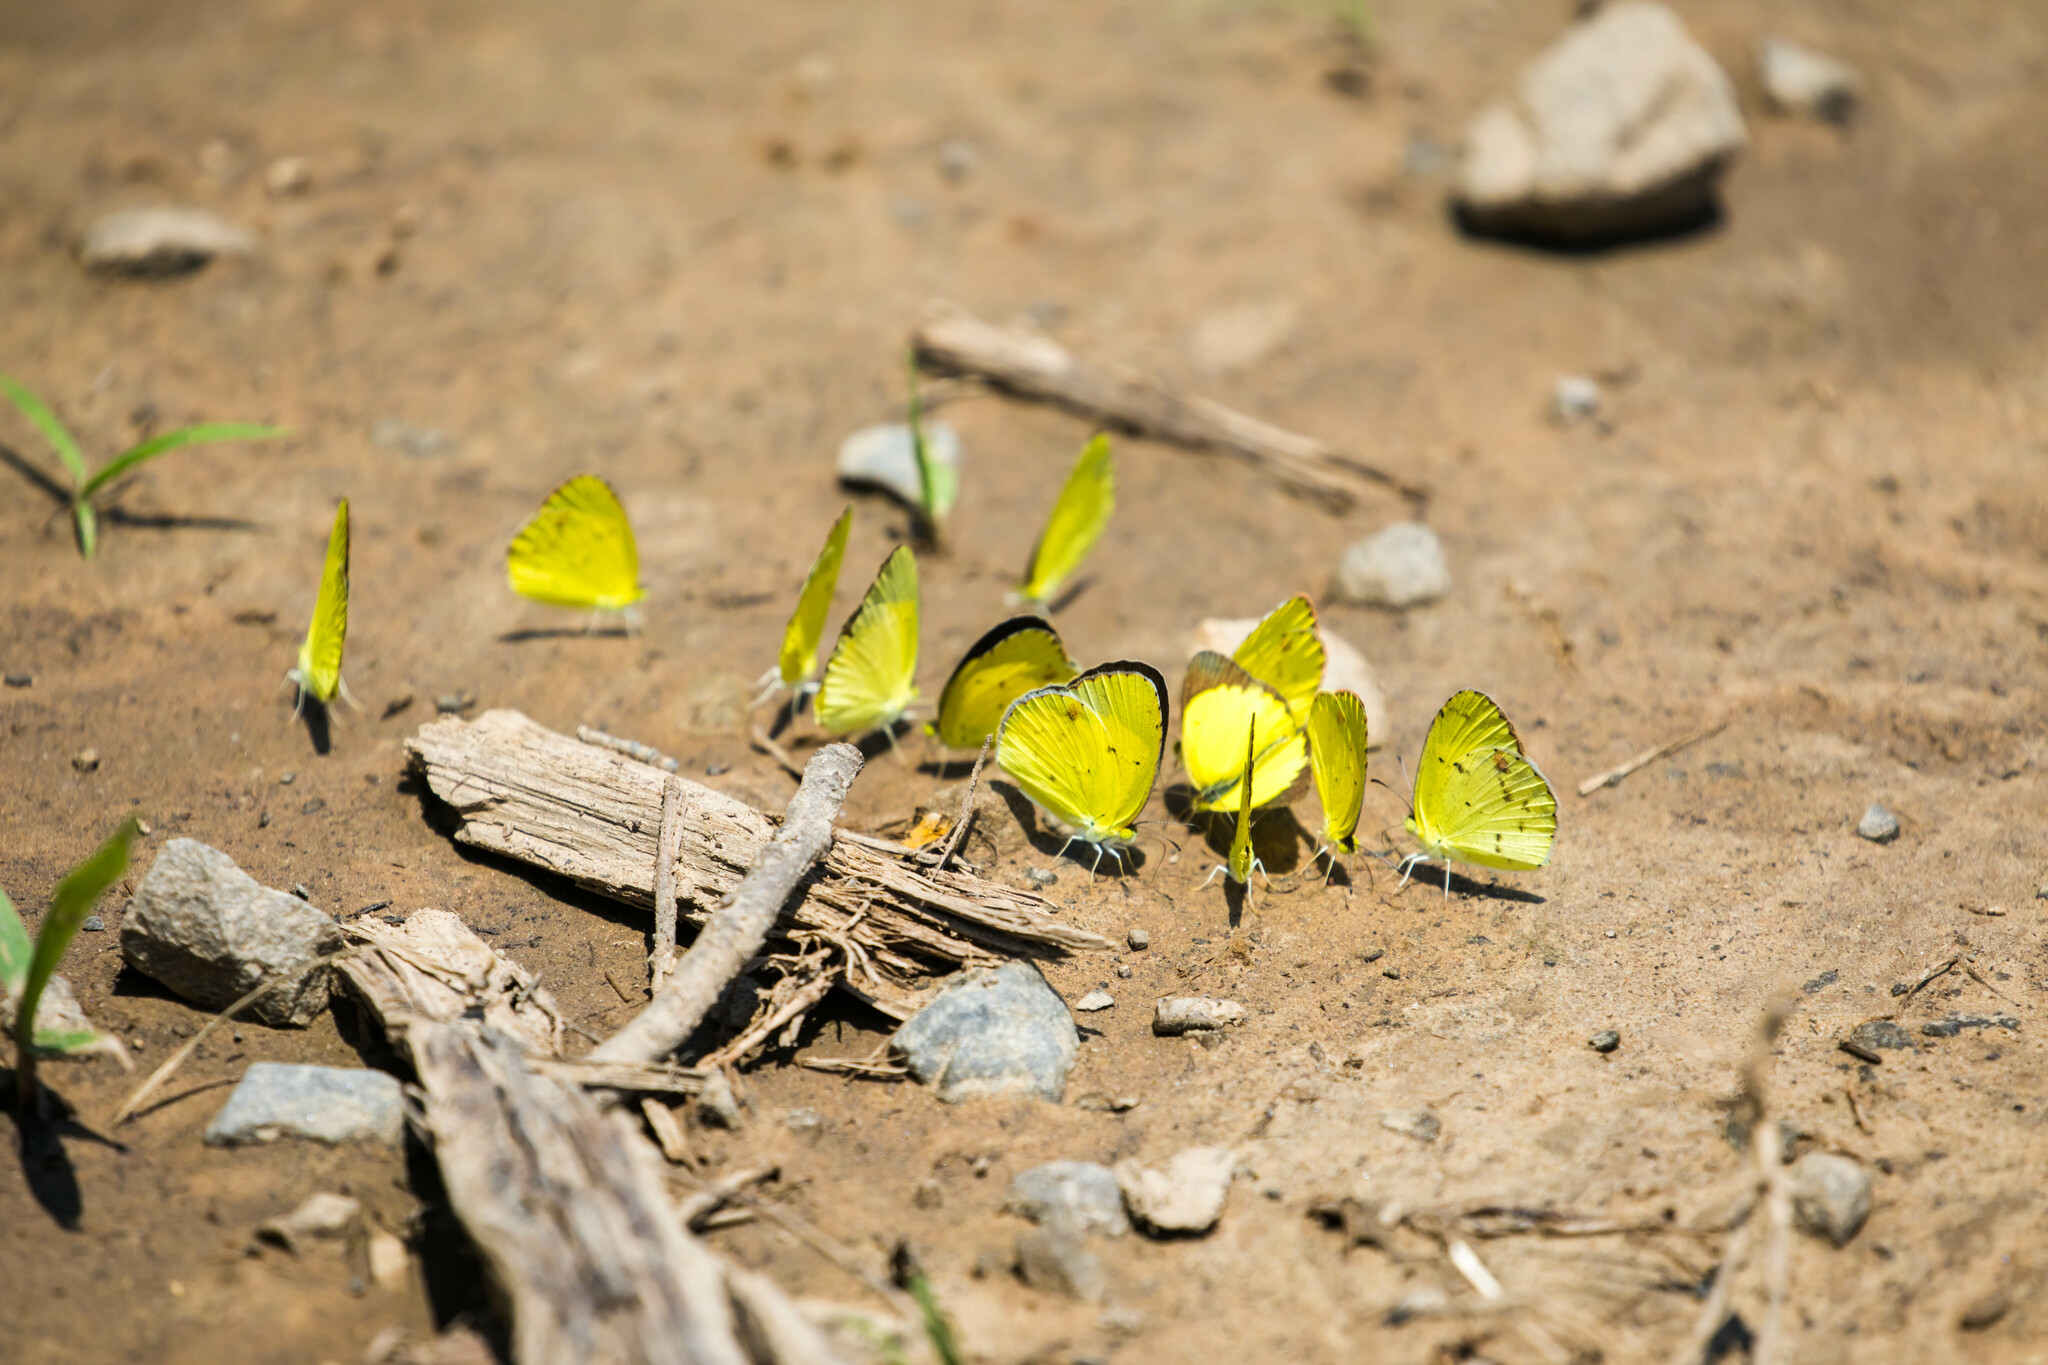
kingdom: Animalia
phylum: Arthropoda
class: Insecta
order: Lepidoptera
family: Pieridae
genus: Pyrisitia
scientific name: Pyrisitia lisa
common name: Little yellow
